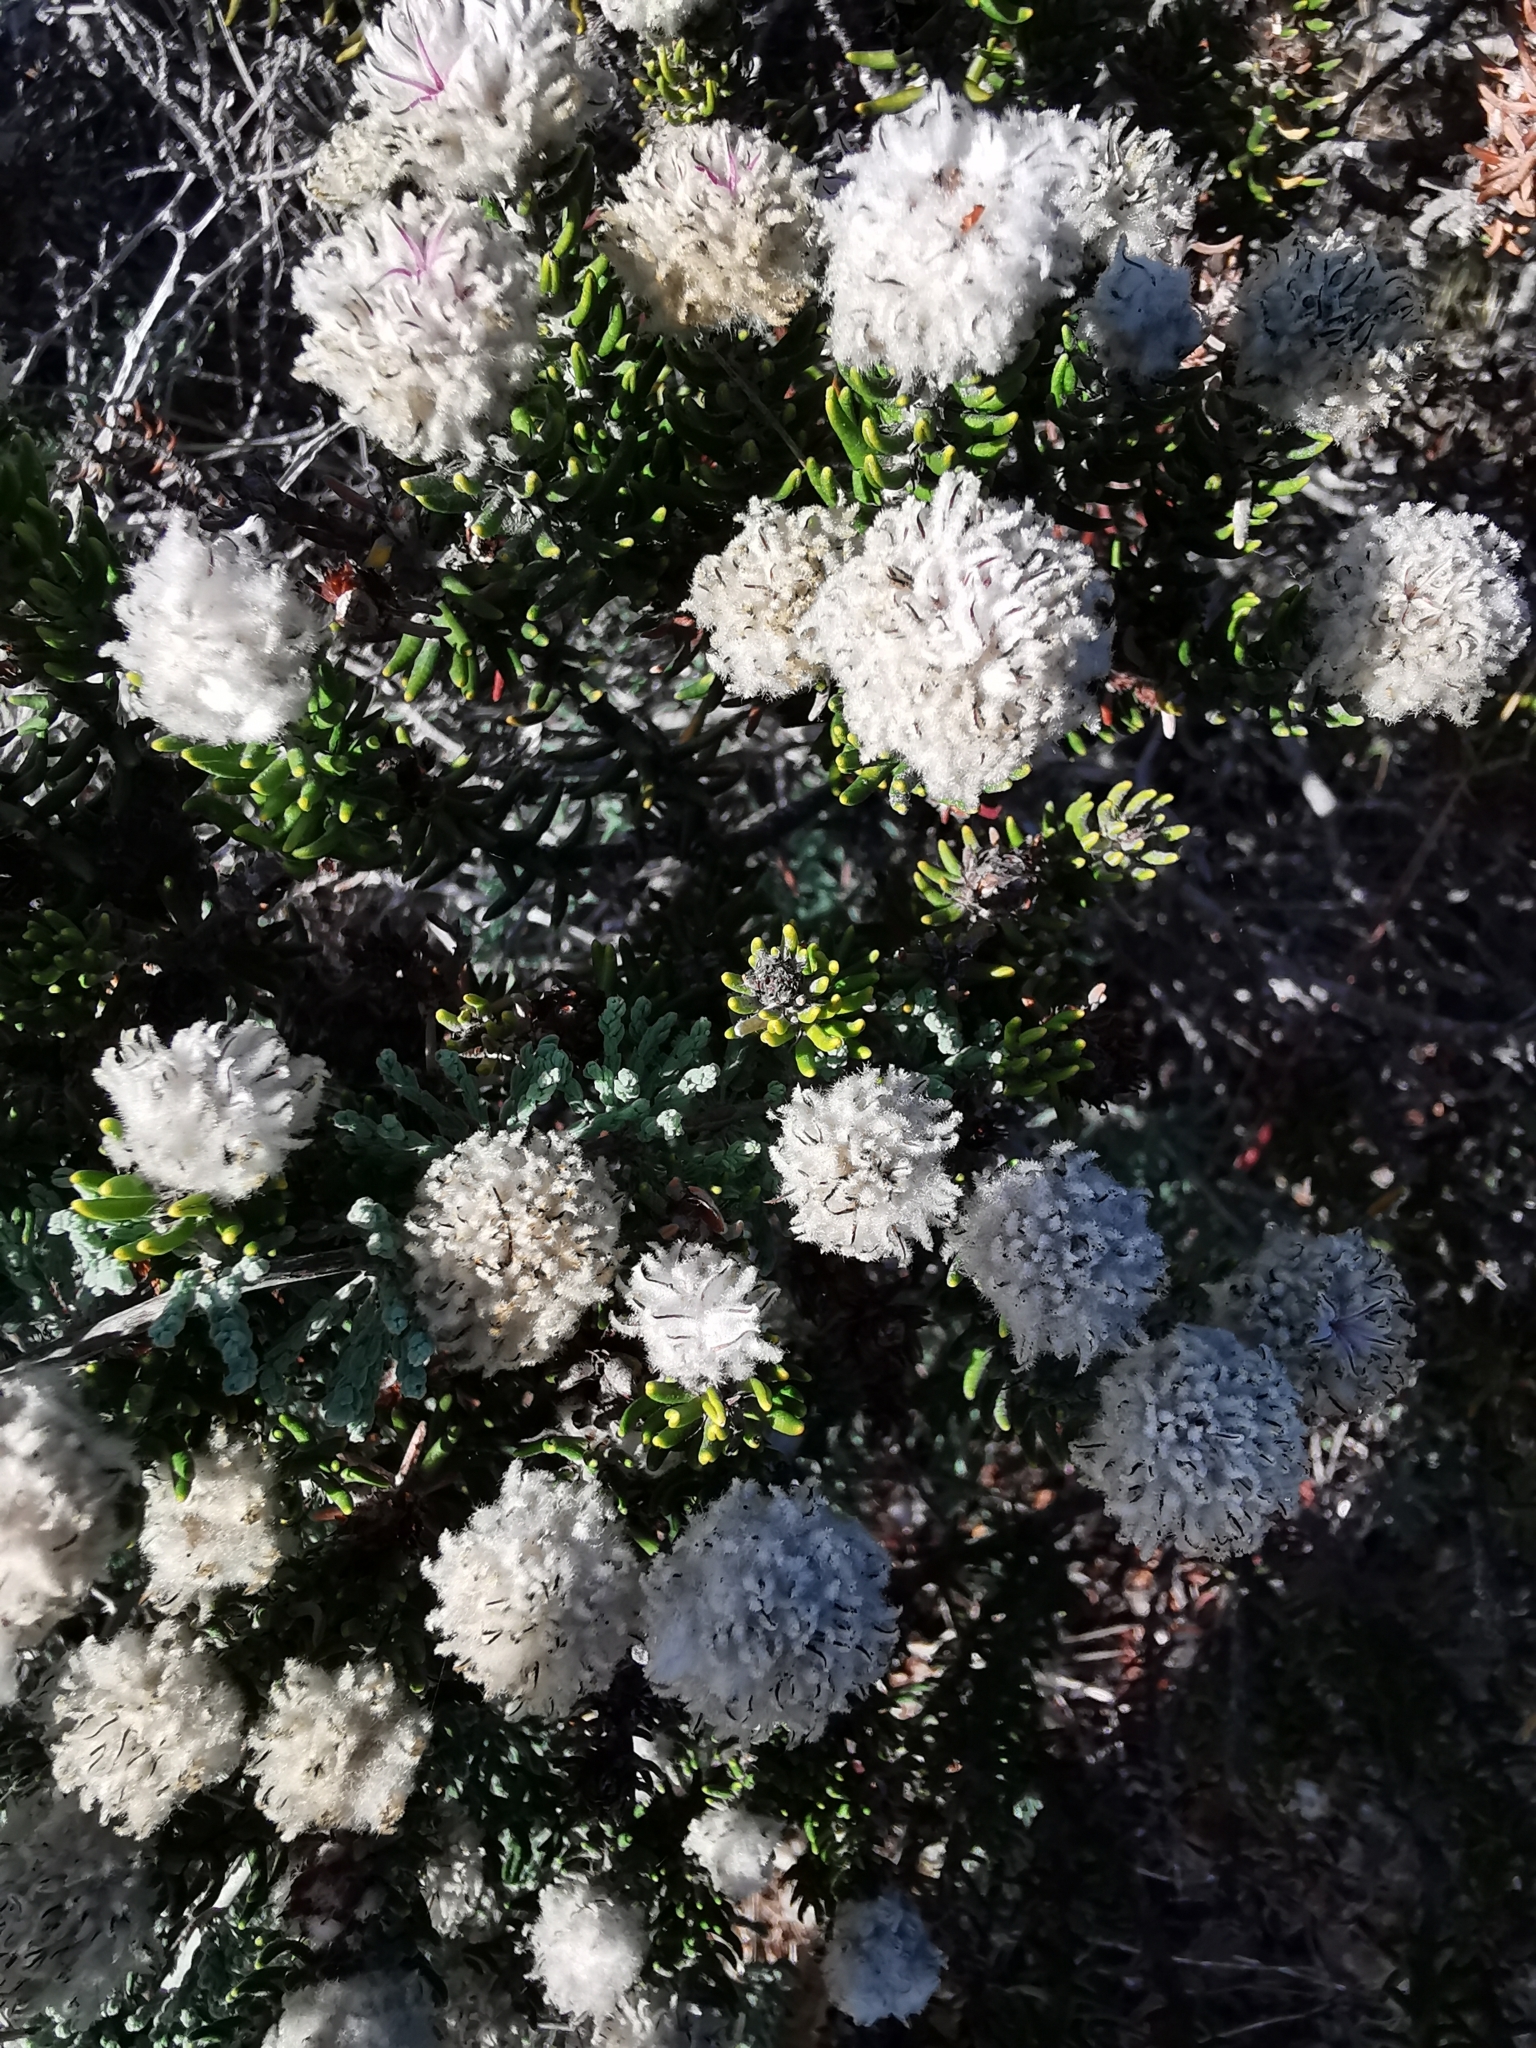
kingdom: Plantae
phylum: Tracheophyta
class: Magnoliopsida
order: Rosales
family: Rhamnaceae
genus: Trichocephalus
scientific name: Trichocephalus stipularis
